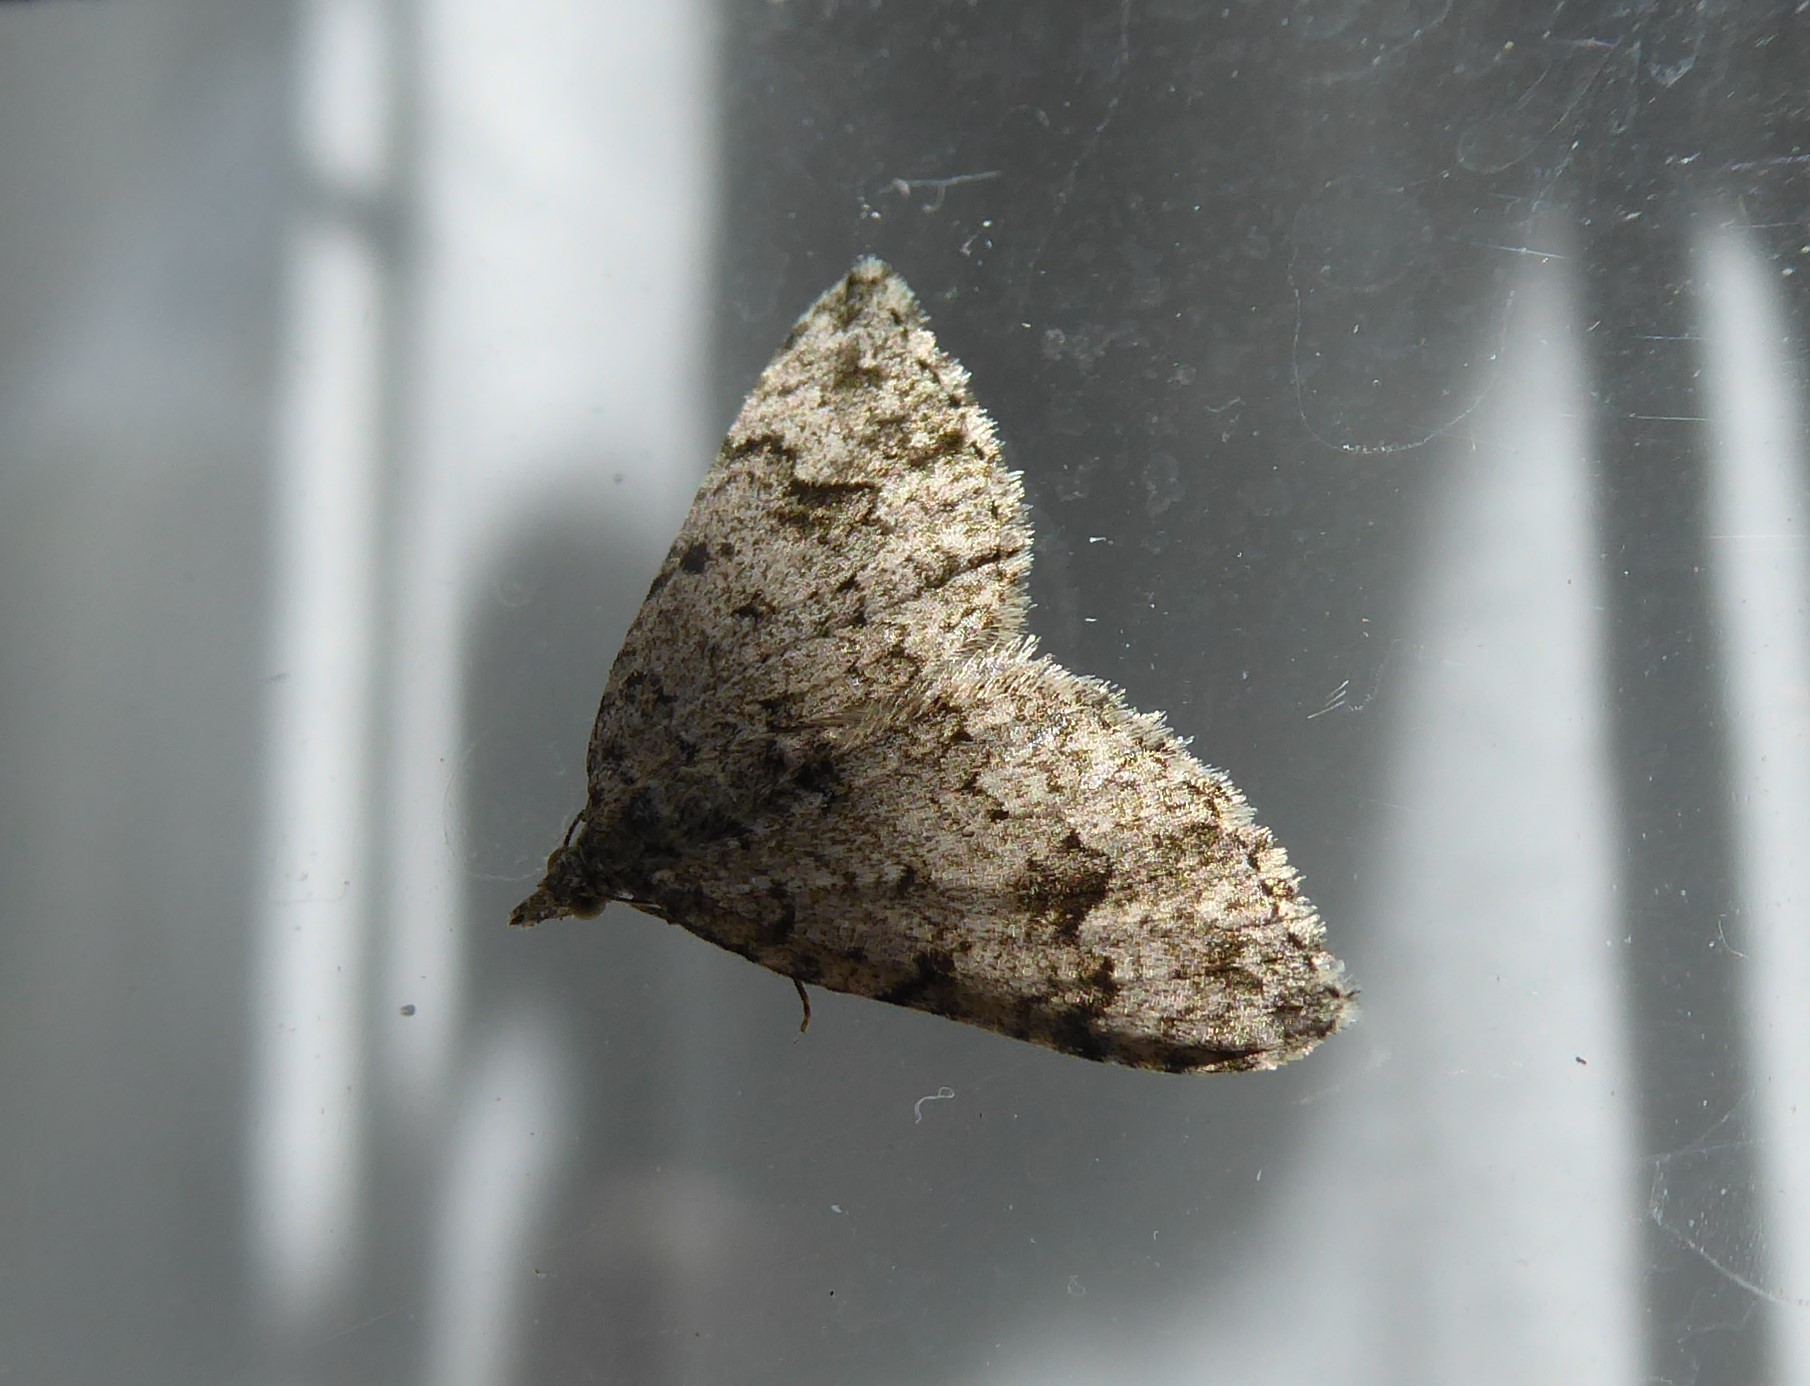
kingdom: Animalia
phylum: Arthropoda
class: Insecta
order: Lepidoptera
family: Geometridae
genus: Helastia
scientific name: Helastia cinerearia
